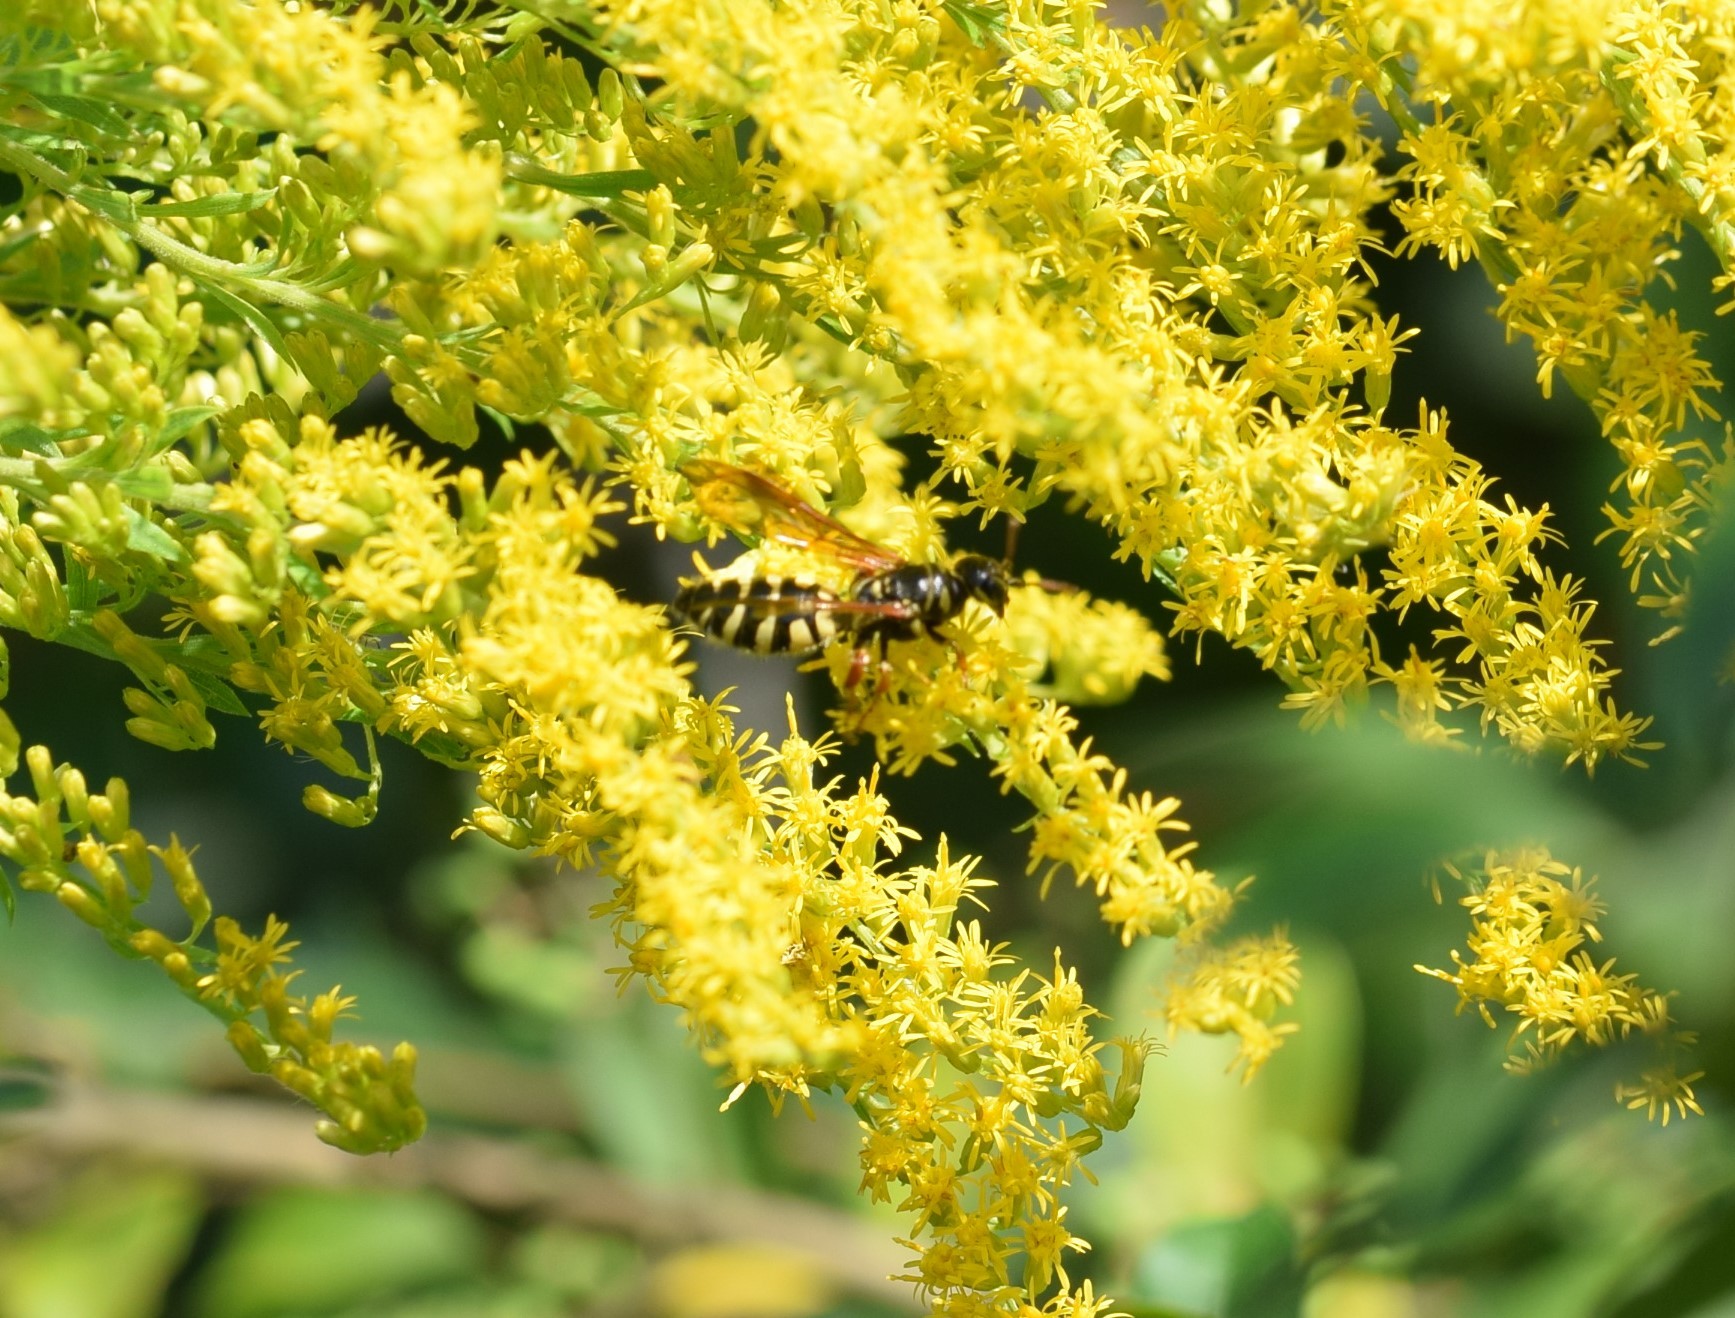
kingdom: Animalia
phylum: Arthropoda
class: Insecta
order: Hymenoptera
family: Tiphiidae
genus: Myzinum
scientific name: Myzinum
